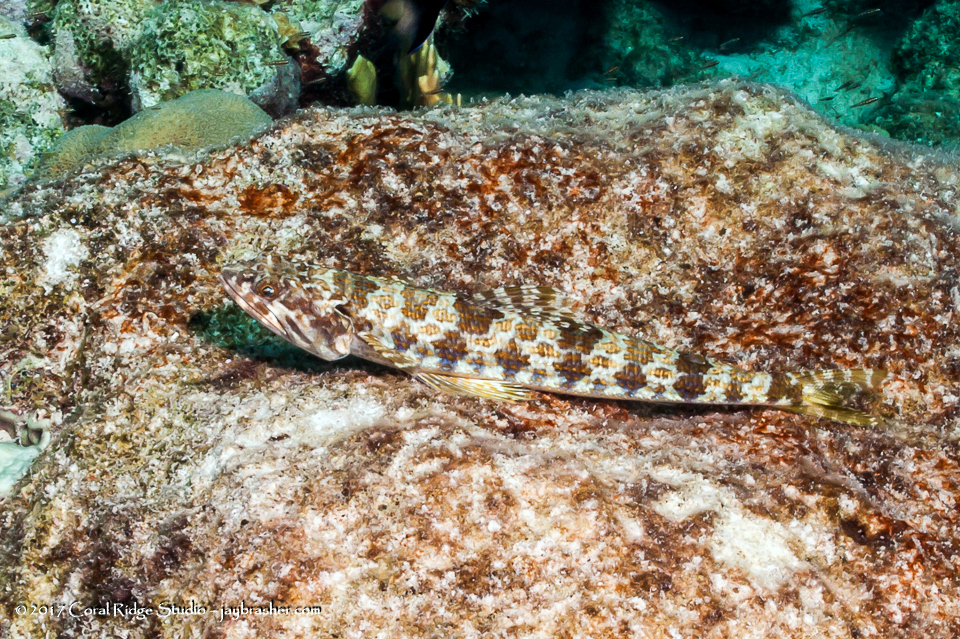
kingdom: Animalia
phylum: Chordata
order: Aulopiformes
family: Synodontidae
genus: Synodus
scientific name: Synodus intermedius
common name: Sand diver
